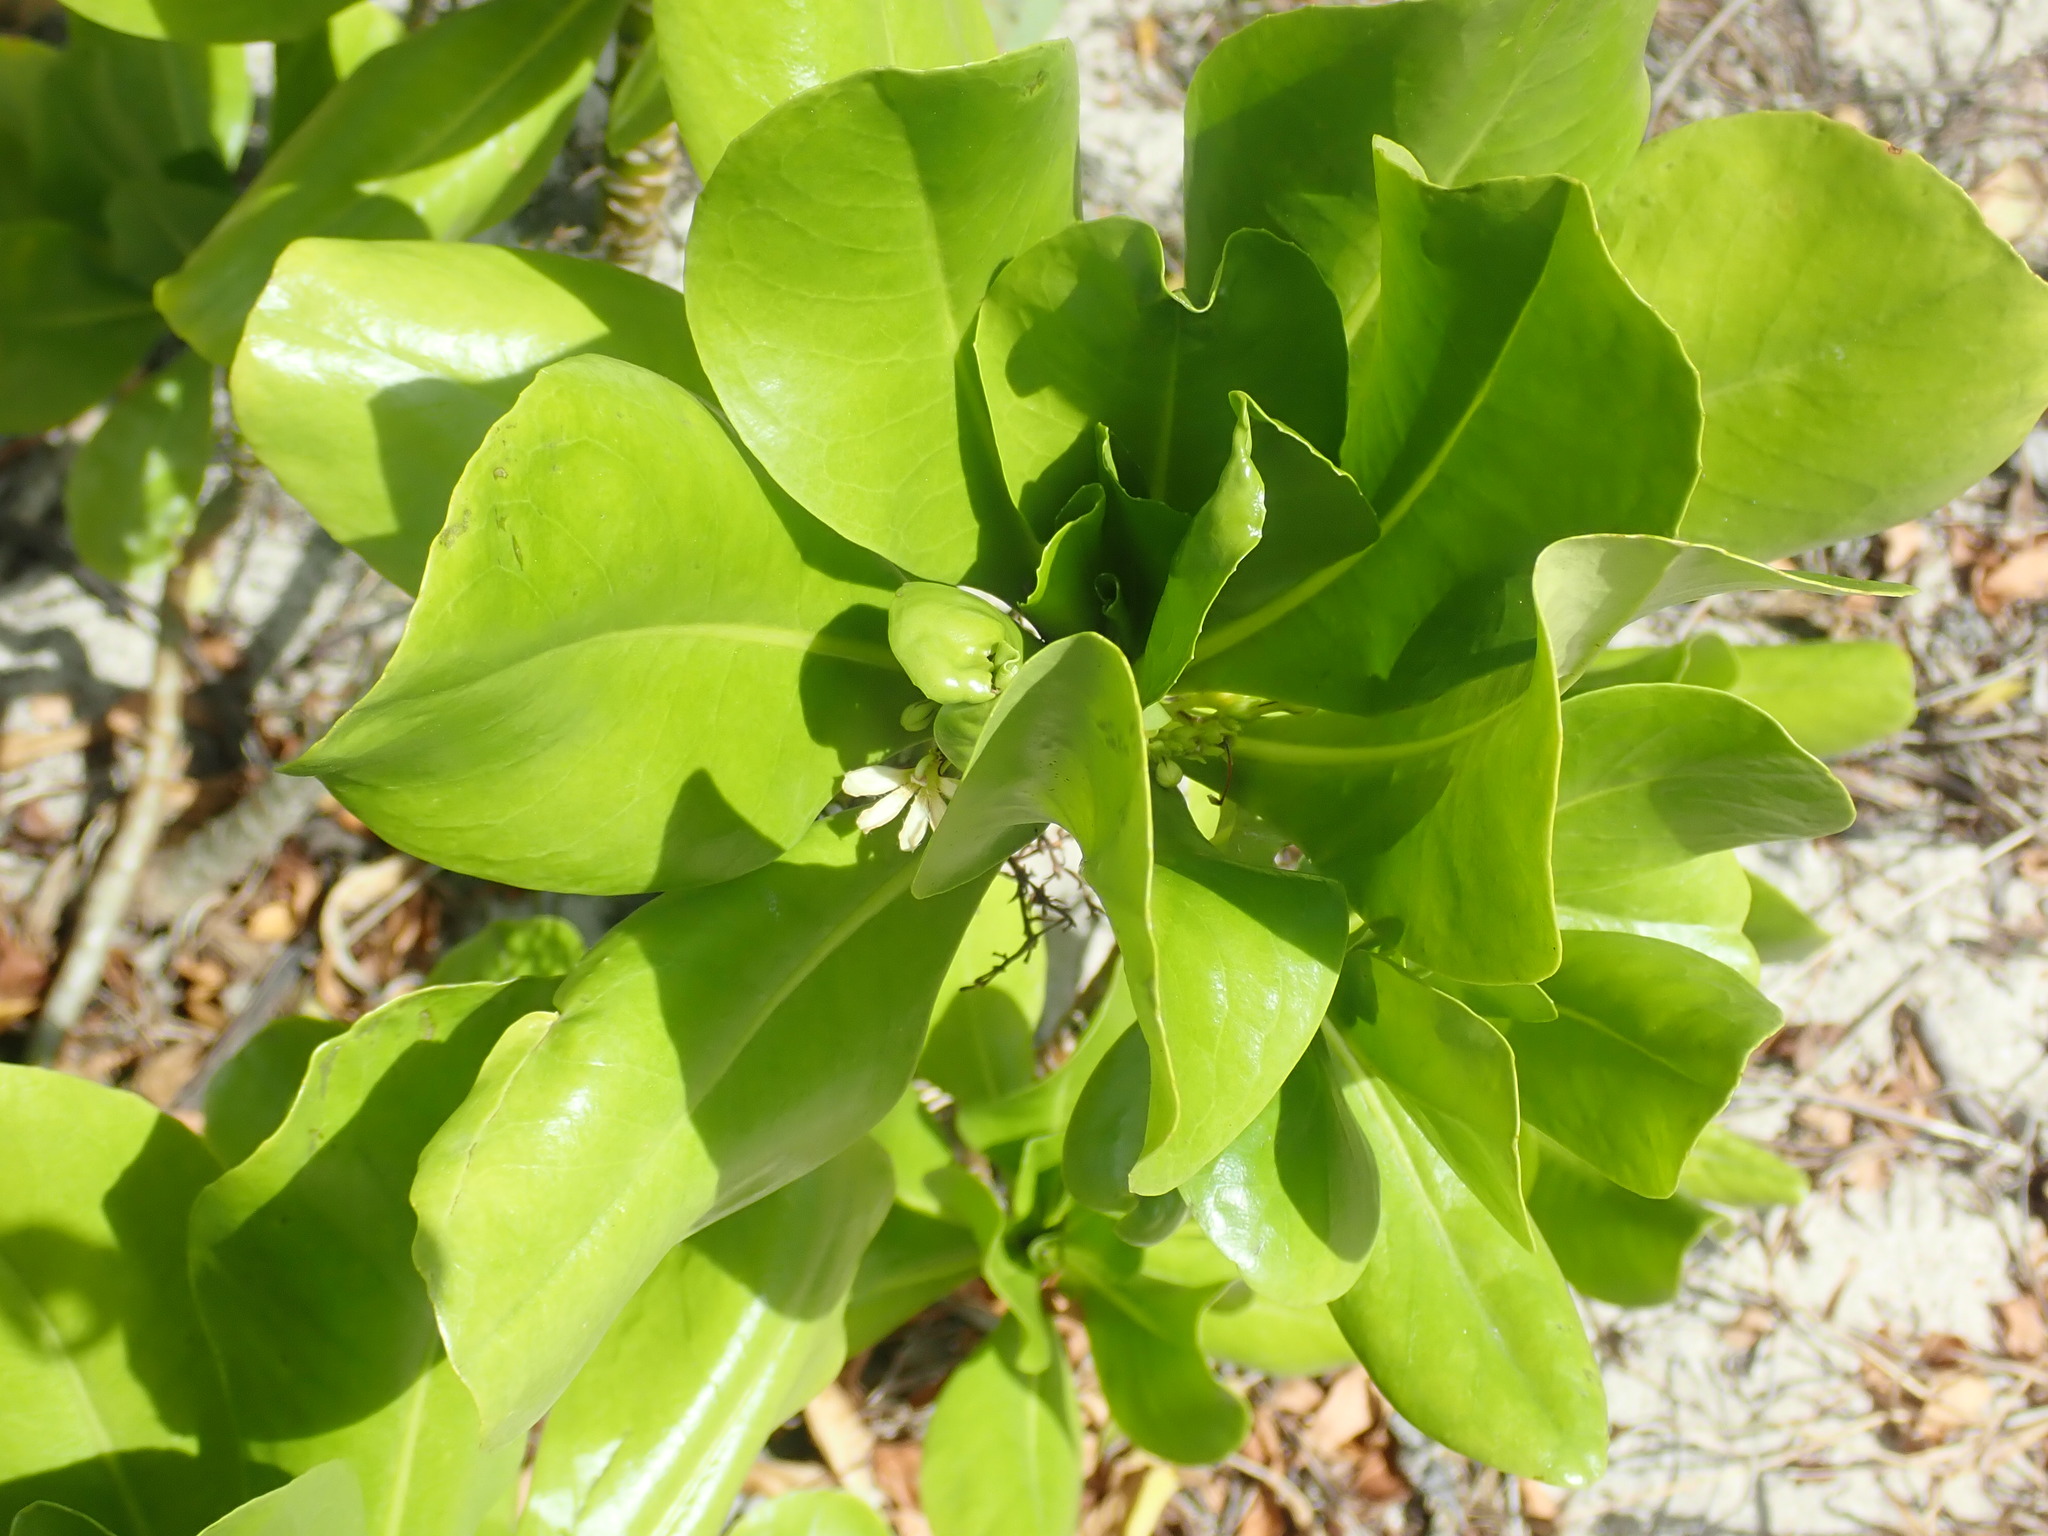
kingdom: Plantae
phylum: Tracheophyta
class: Magnoliopsida
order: Asterales
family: Goodeniaceae
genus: Scaevola
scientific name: Scaevola taccada
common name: Sea lettucetree
